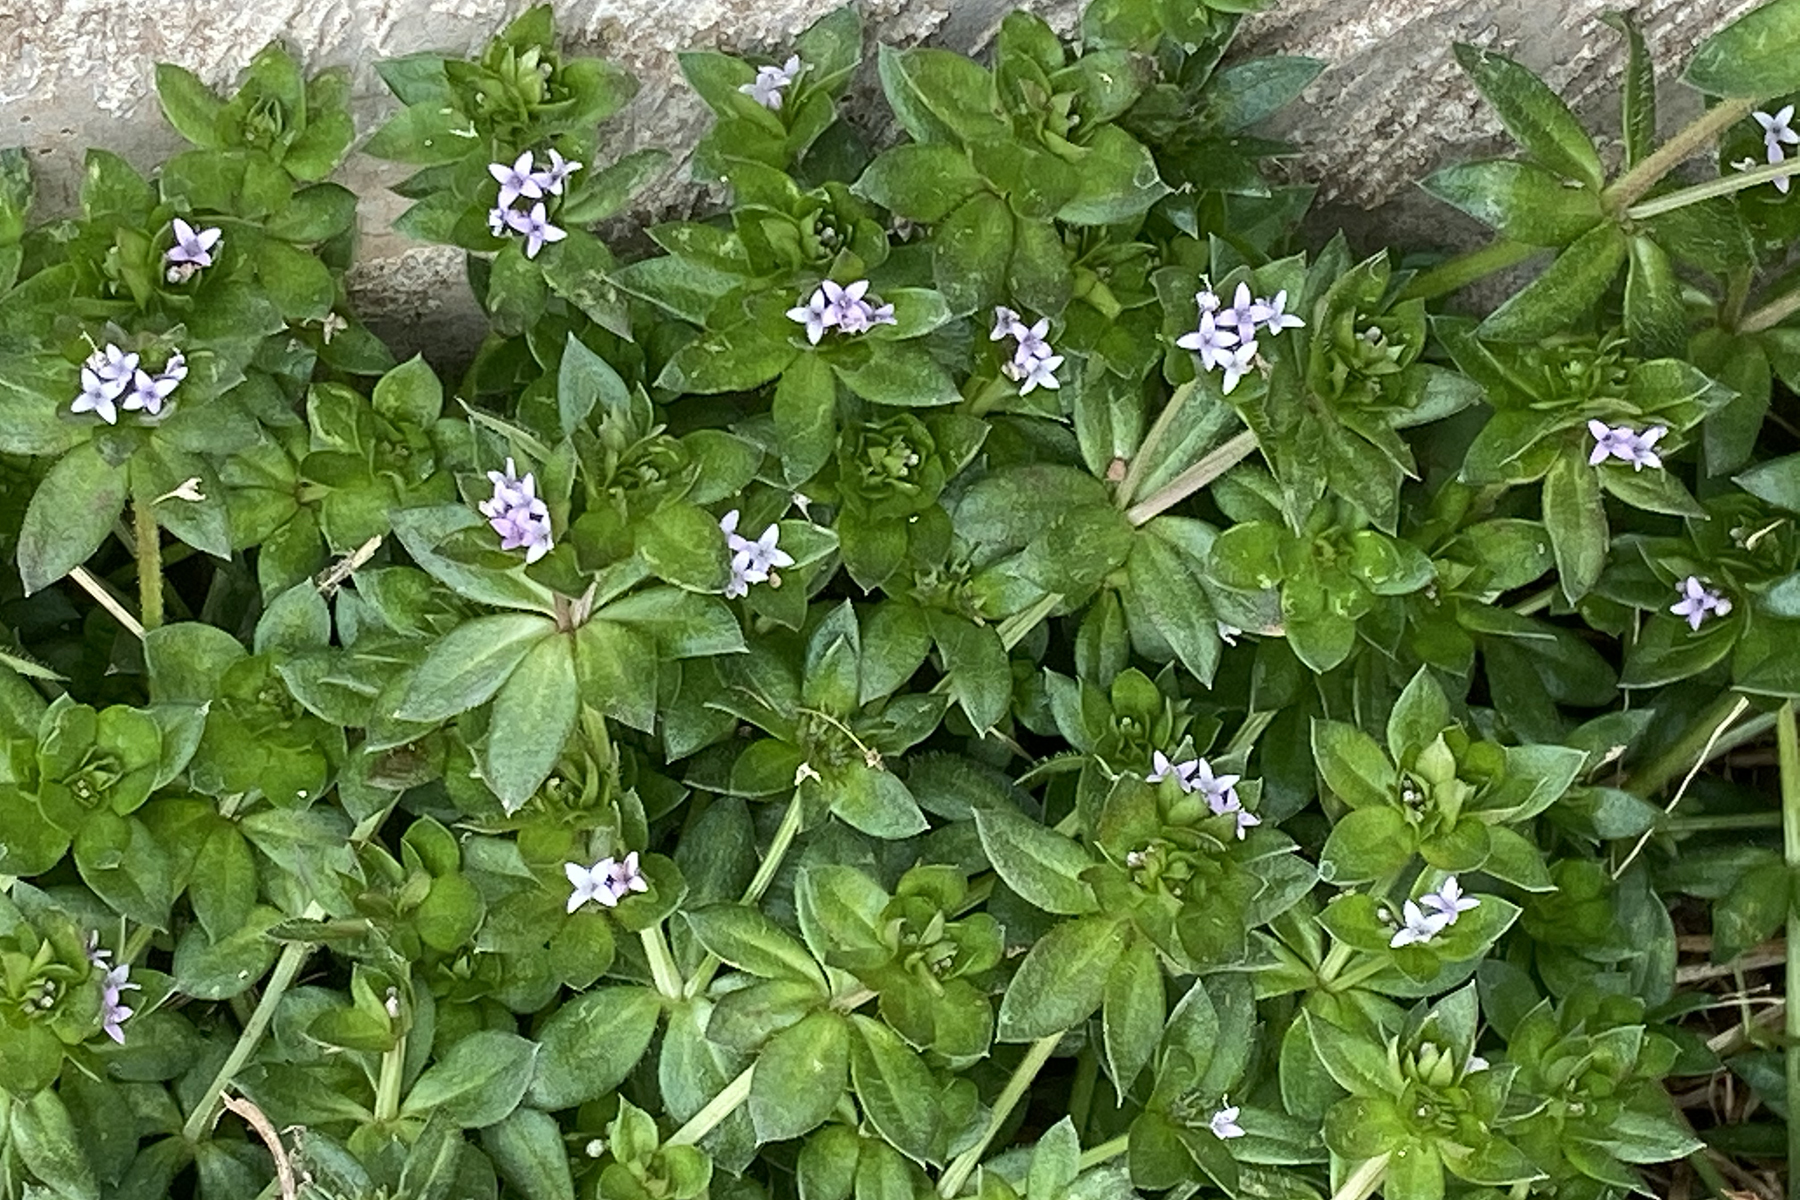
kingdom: Plantae
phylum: Tracheophyta
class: Magnoliopsida
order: Gentianales
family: Rubiaceae
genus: Sherardia
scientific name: Sherardia arvensis
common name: Field madder
